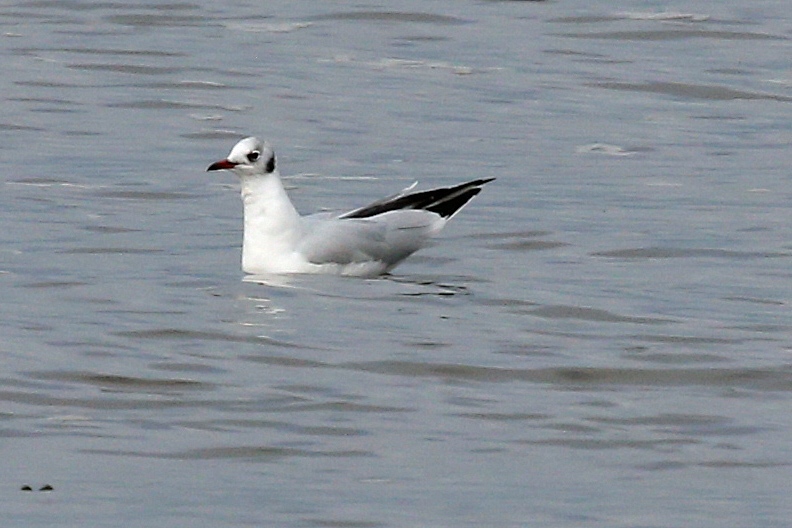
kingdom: Animalia
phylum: Chordata
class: Aves
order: Charadriiformes
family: Laridae
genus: Chroicocephalus
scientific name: Chroicocephalus ridibundus
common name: Black-headed gull
